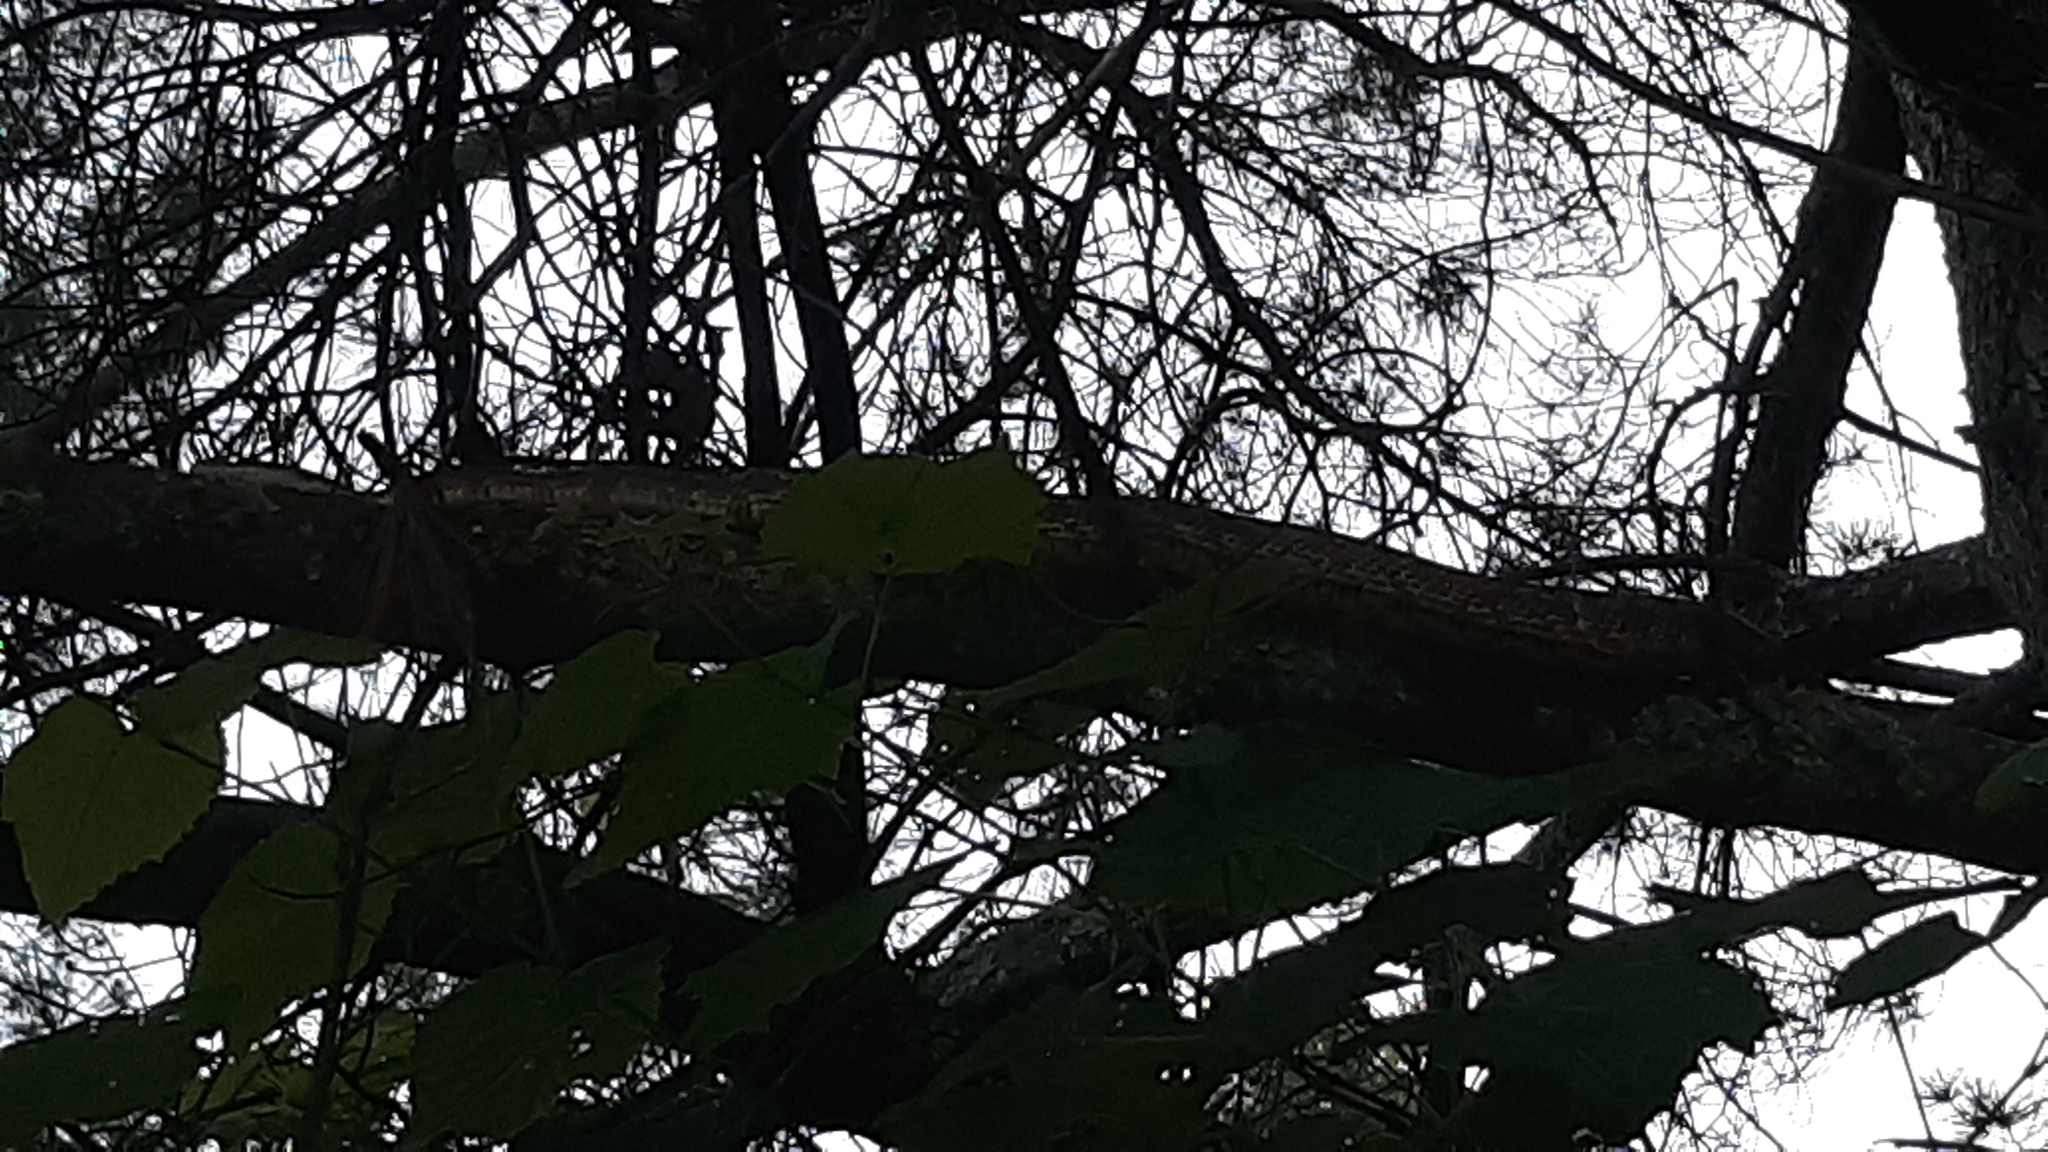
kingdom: Animalia
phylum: Chordata
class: Squamata
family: Colubridae
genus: Pantherophis
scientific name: Pantherophis spiloides
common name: Gray rat snake
